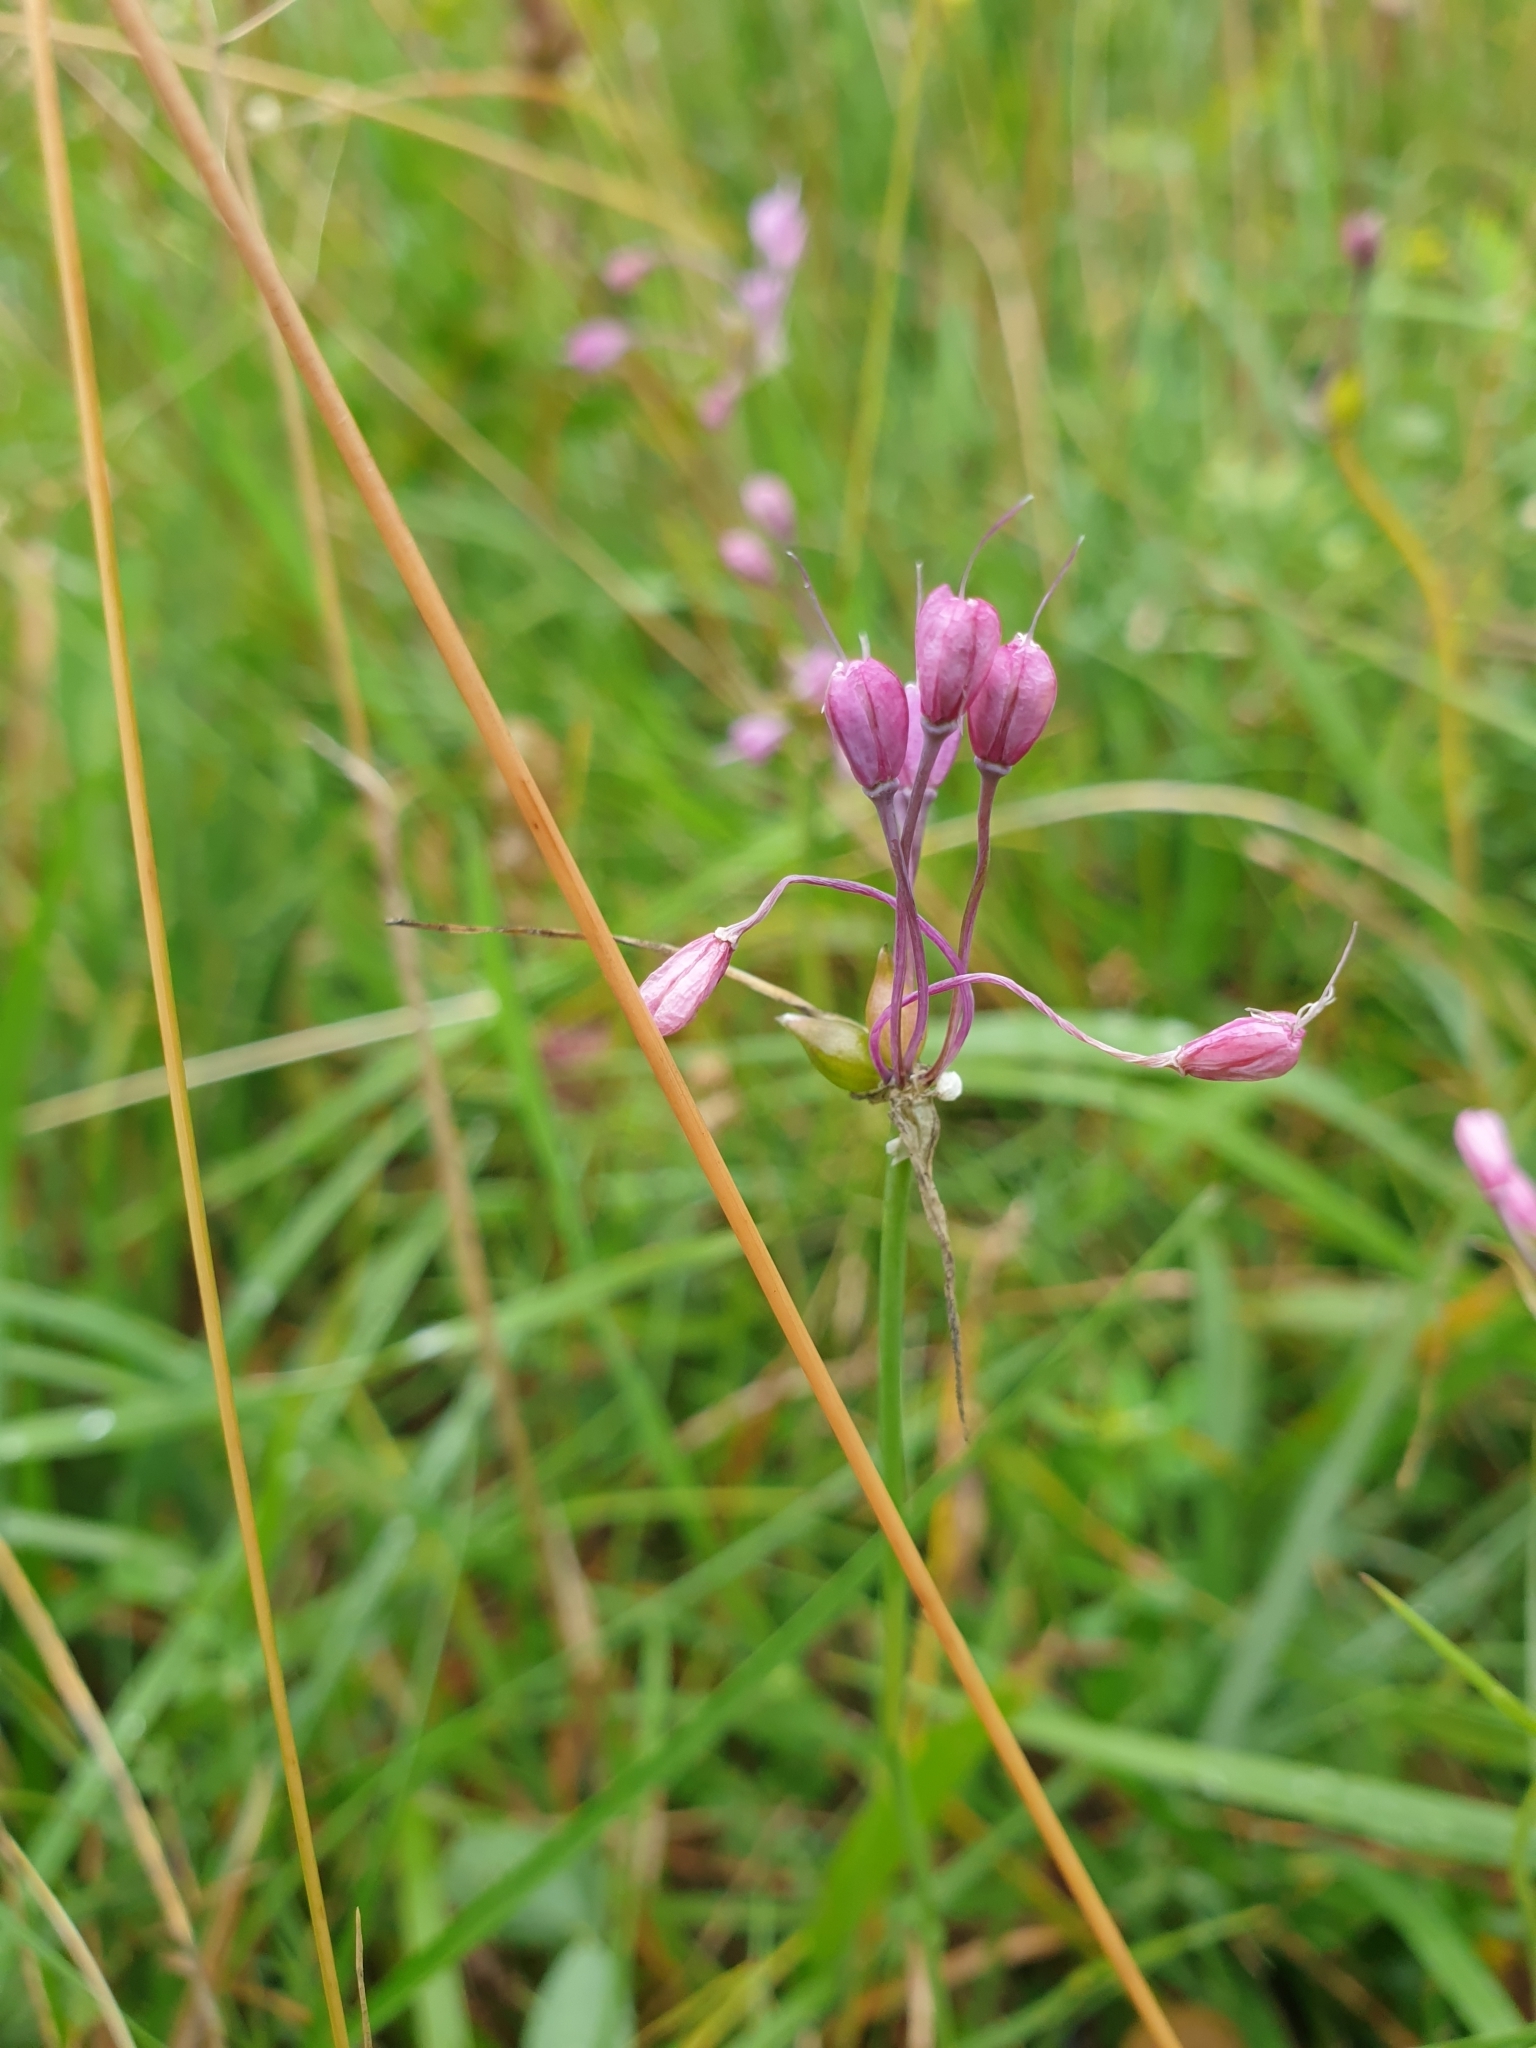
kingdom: Plantae
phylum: Tracheophyta
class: Liliopsida
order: Asparagales
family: Amaryllidaceae
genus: Allium
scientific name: Allium carinatum
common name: Keeled garlic
